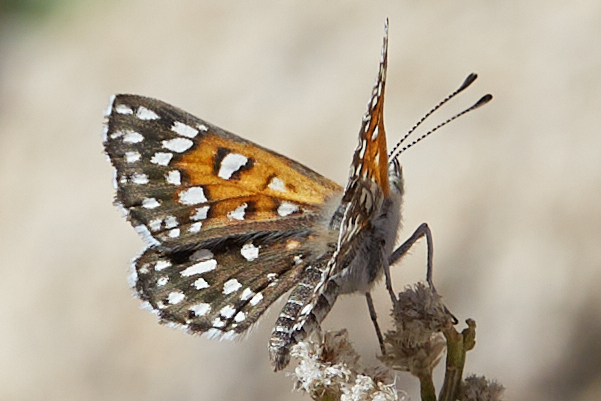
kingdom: Animalia
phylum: Arthropoda
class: Insecta
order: Lepidoptera
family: Riodinidae
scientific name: Riodinidae
